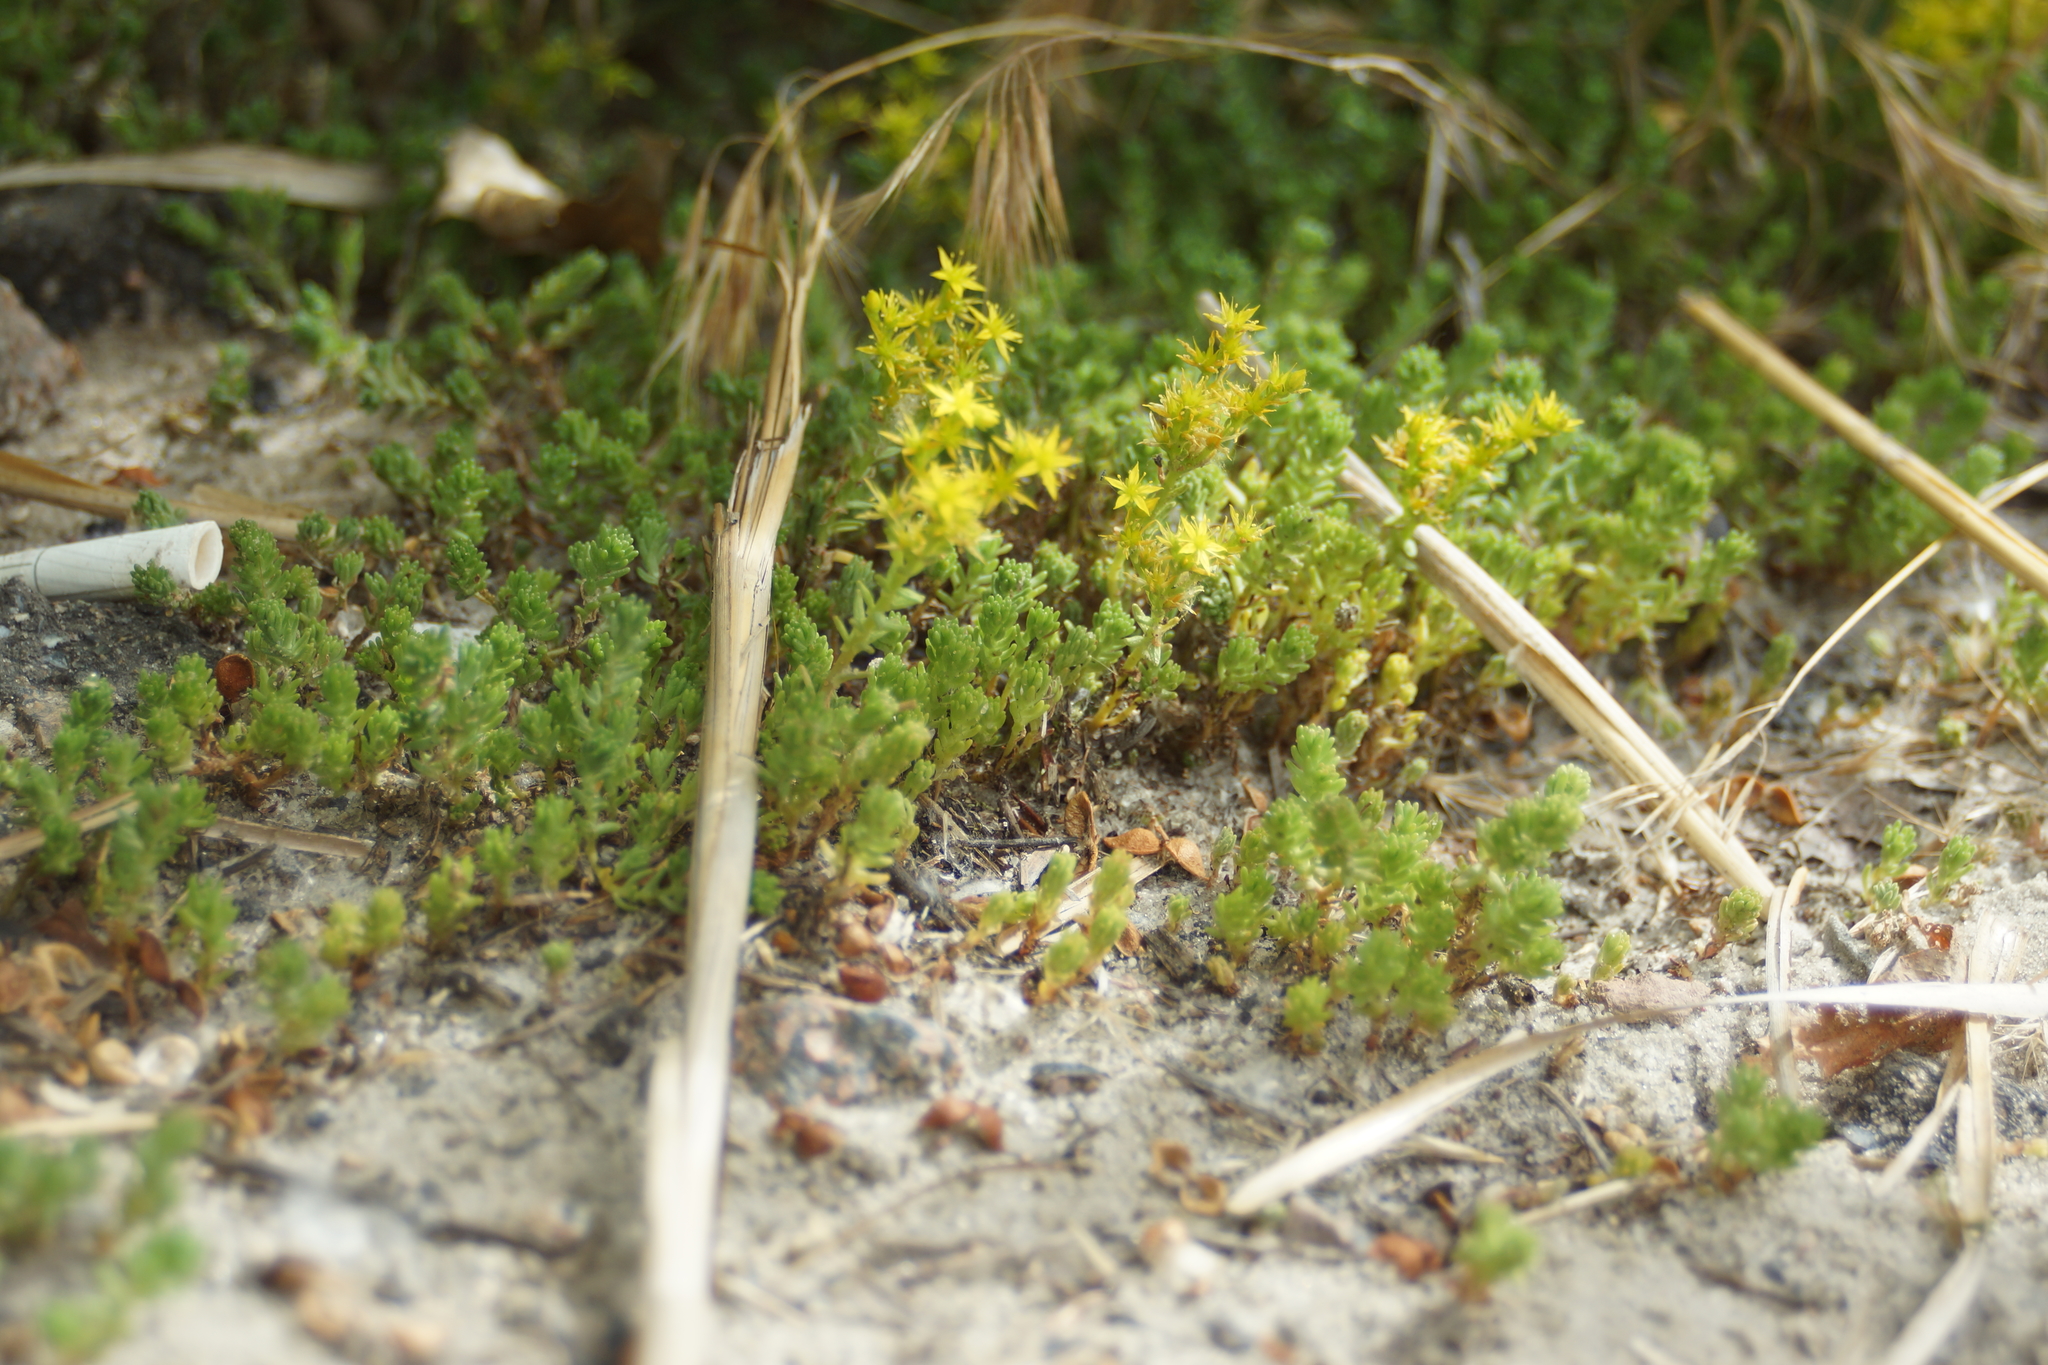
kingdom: Plantae
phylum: Tracheophyta
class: Magnoliopsida
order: Saxifragales
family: Crassulaceae
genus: Sedum
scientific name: Sedum sexangulare
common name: Tasteless stonecrop
